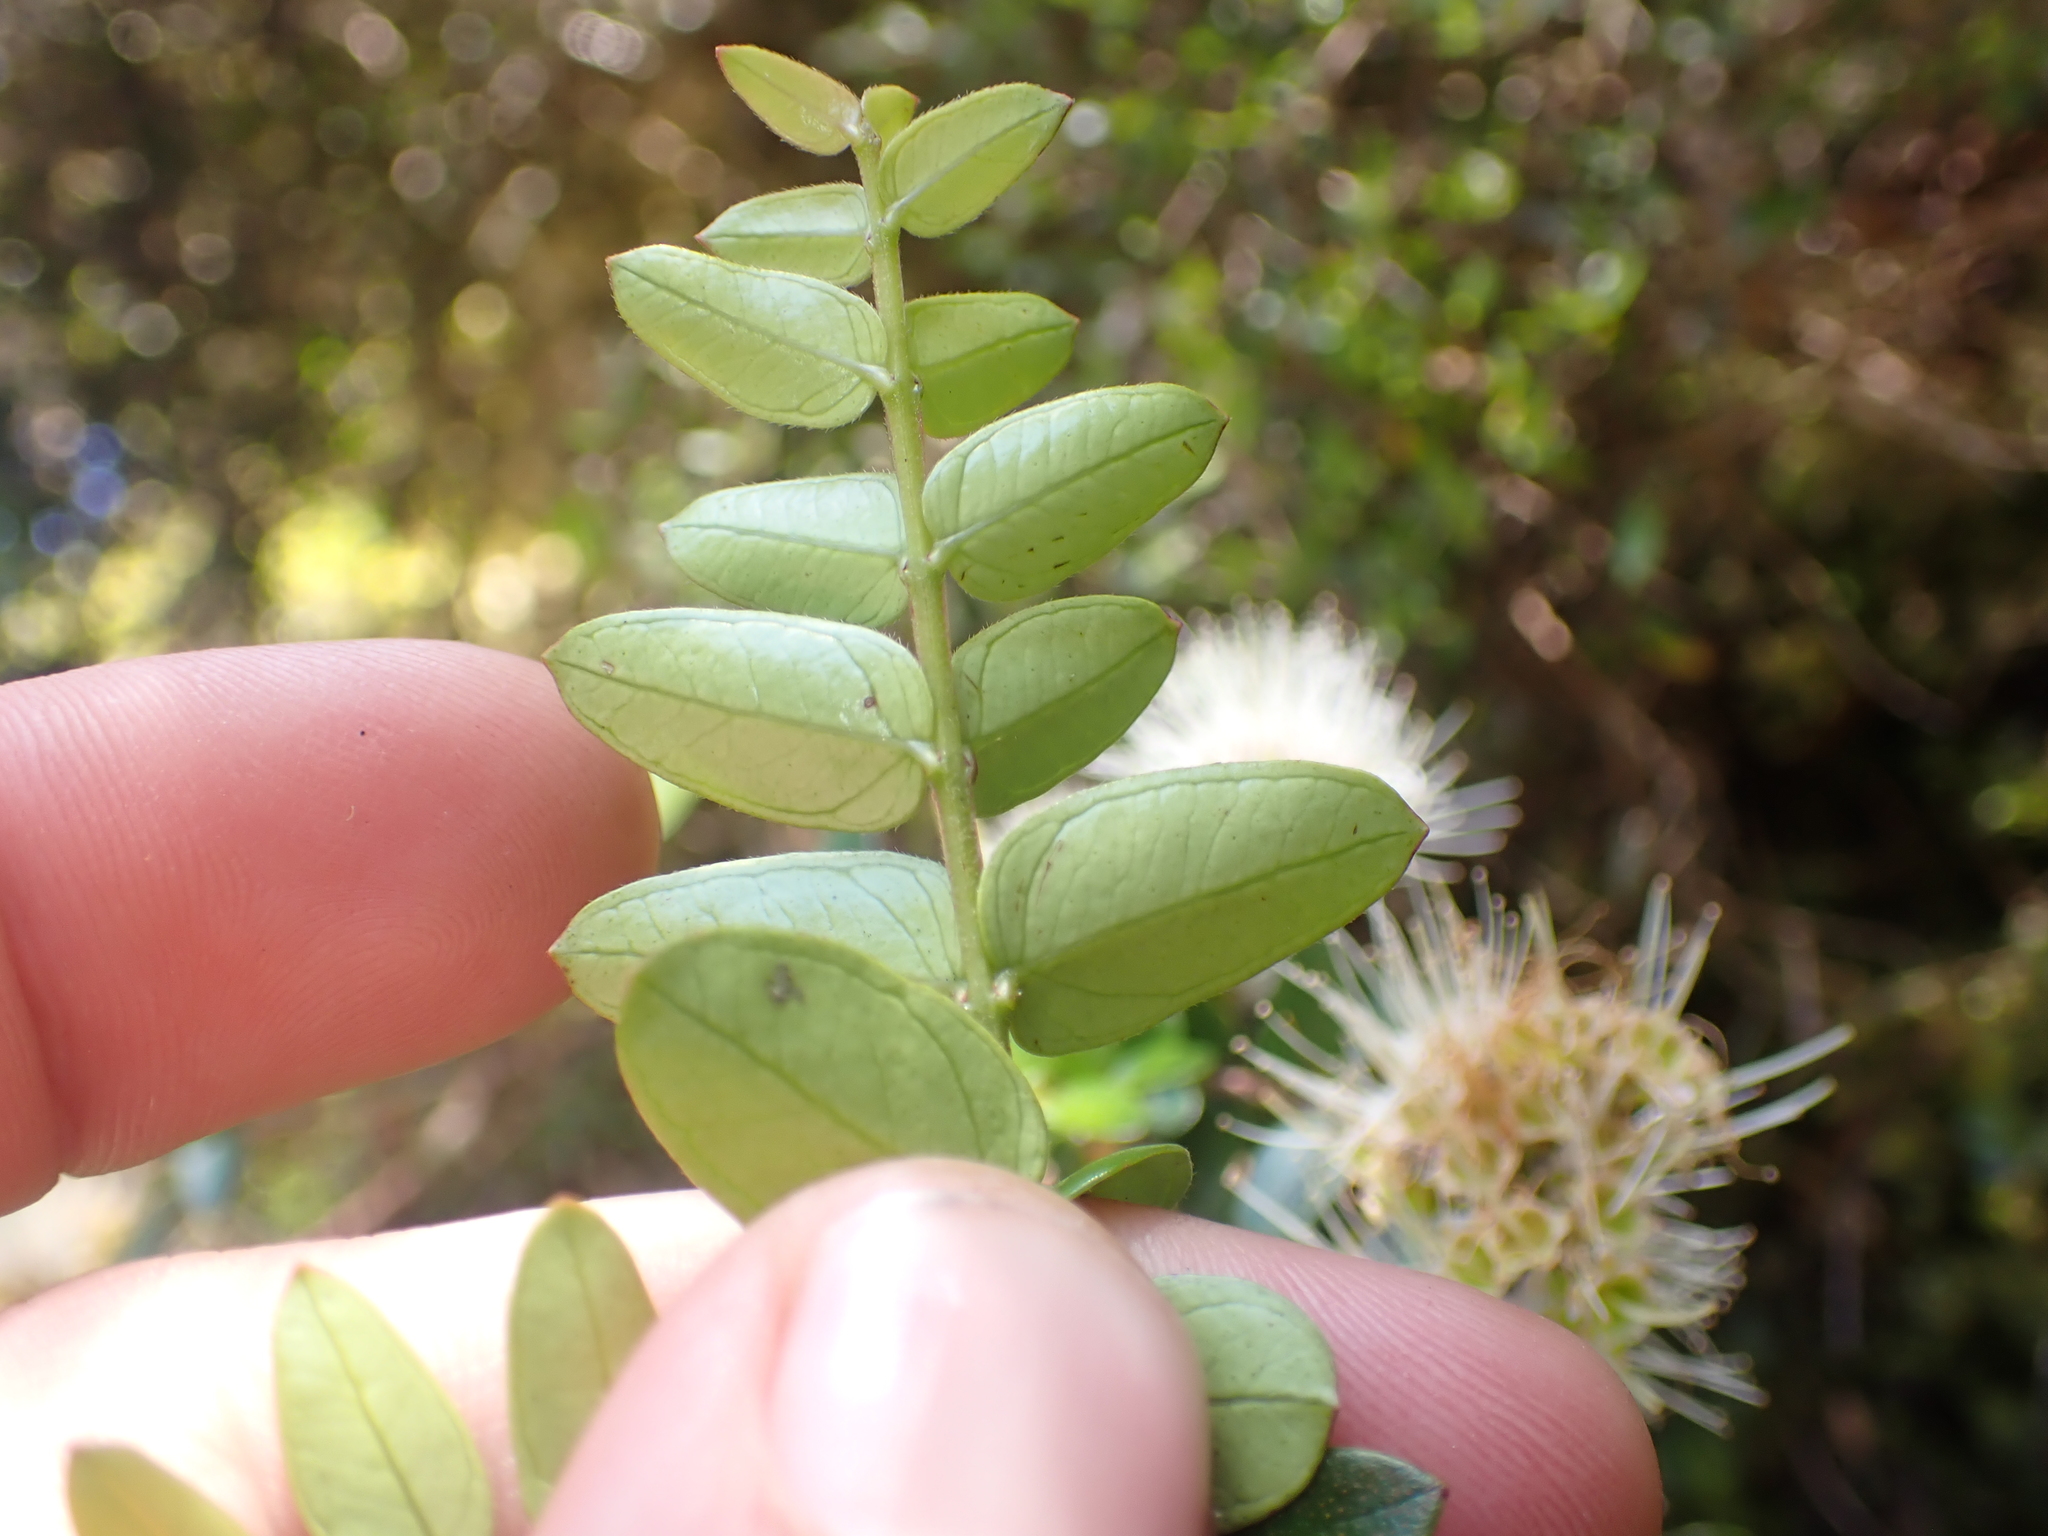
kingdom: Plantae
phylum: Tracheophyta
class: Magnoliopsida
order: Myrtales
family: Myrtaceae
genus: Metrosideros
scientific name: Metrosideros diffusa
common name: Small ratavine
